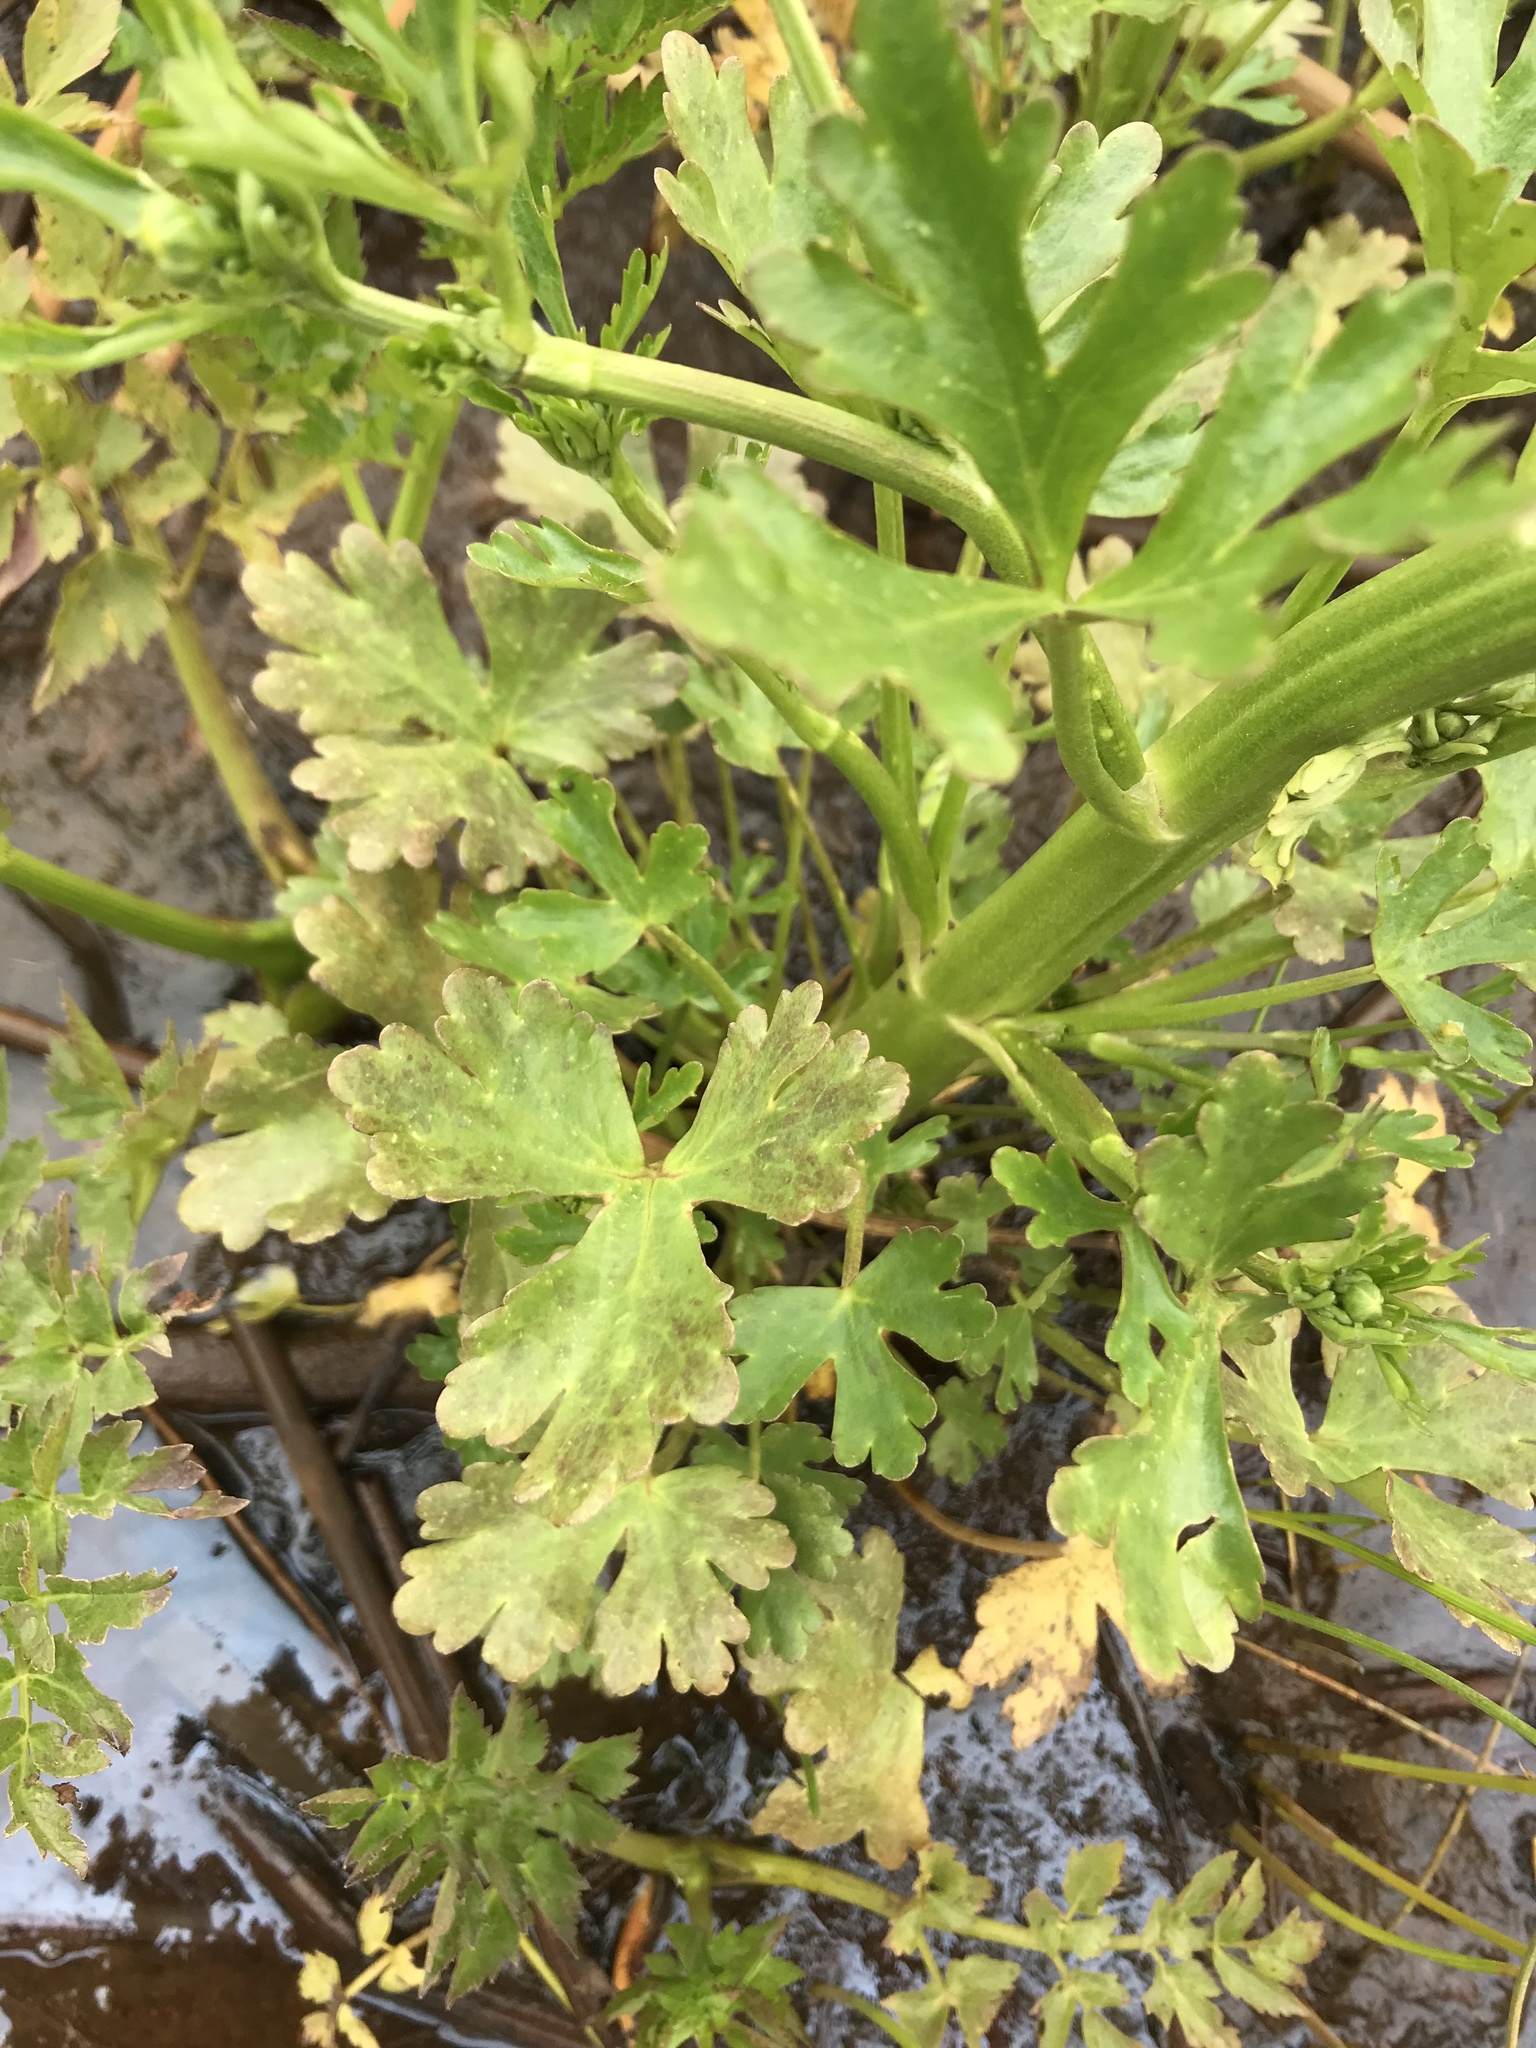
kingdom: Plantae
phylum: Tracheophyta
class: Magnoliopsida
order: Ranunculales
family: Ranunculaceae
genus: Ranunculus
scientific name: Ranunculus sceleratus
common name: Celery-leaved buttercup
